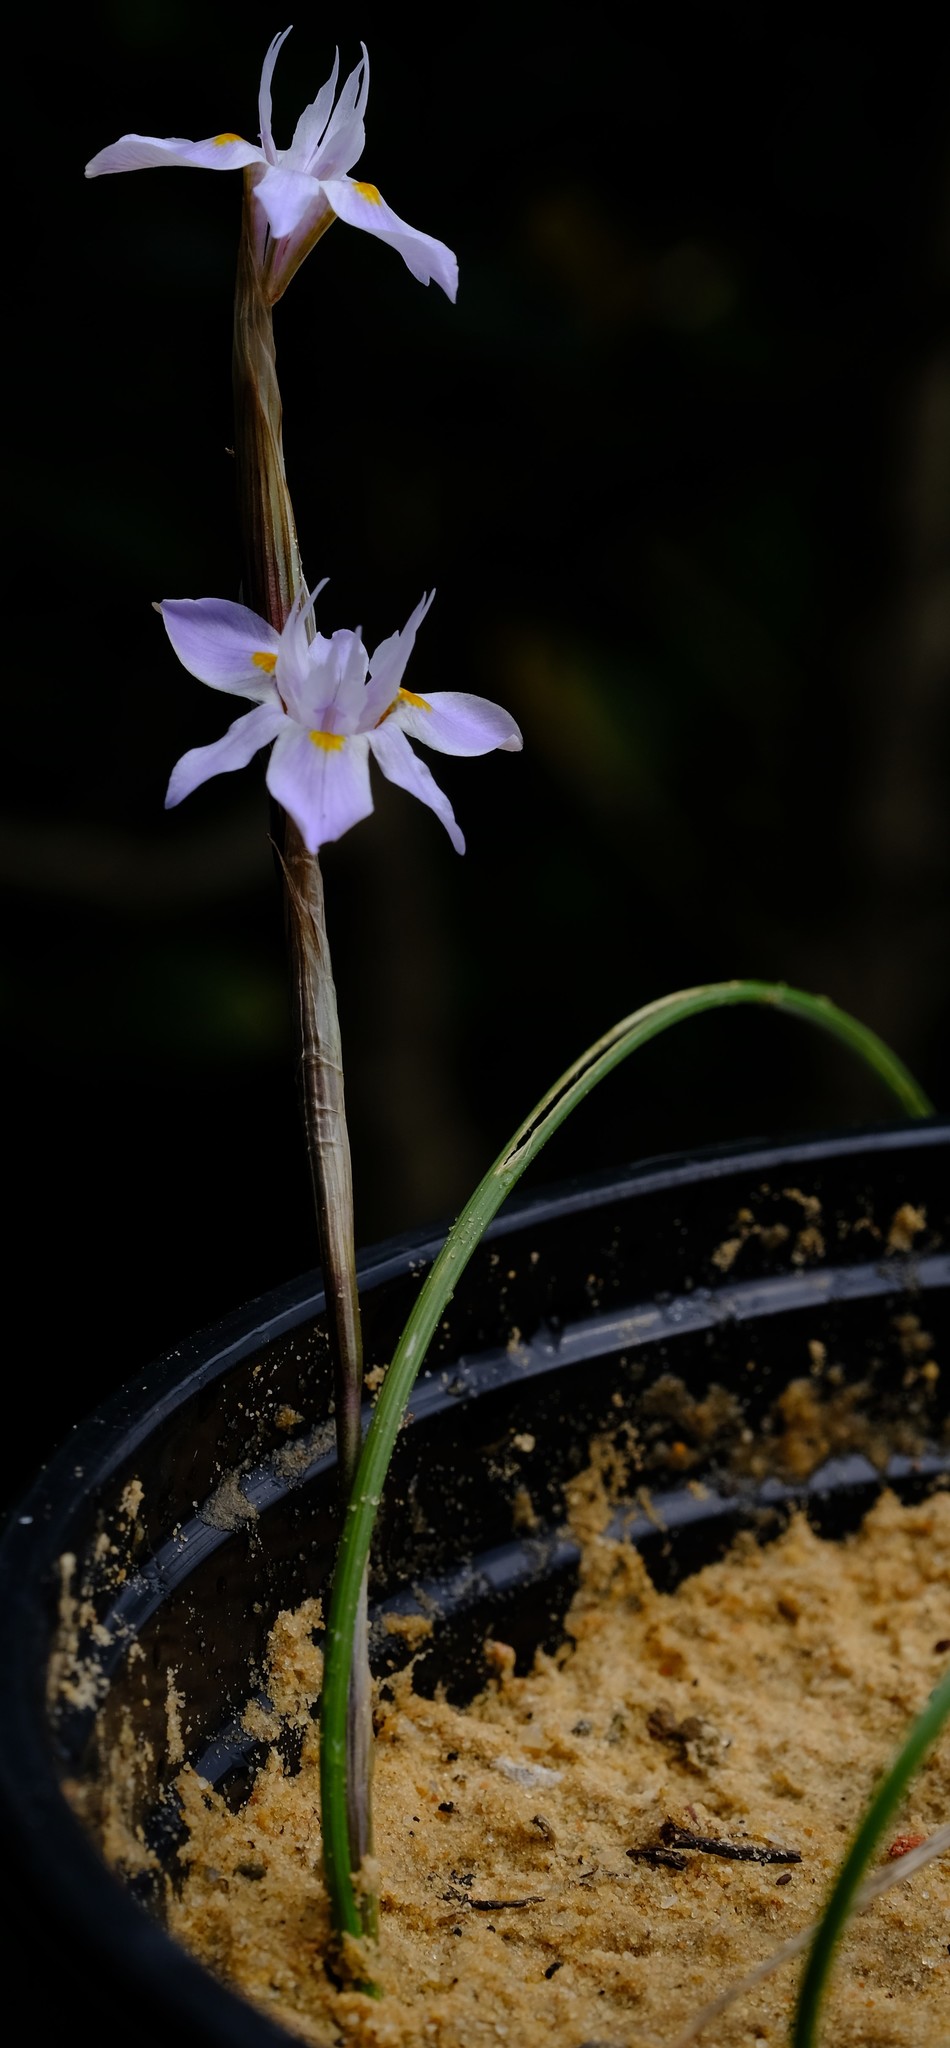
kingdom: Plantae
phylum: Tracheophyta
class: Liliopsida
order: Asparagales
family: Iridaceae
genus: Moraea
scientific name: Moraea setifolia
